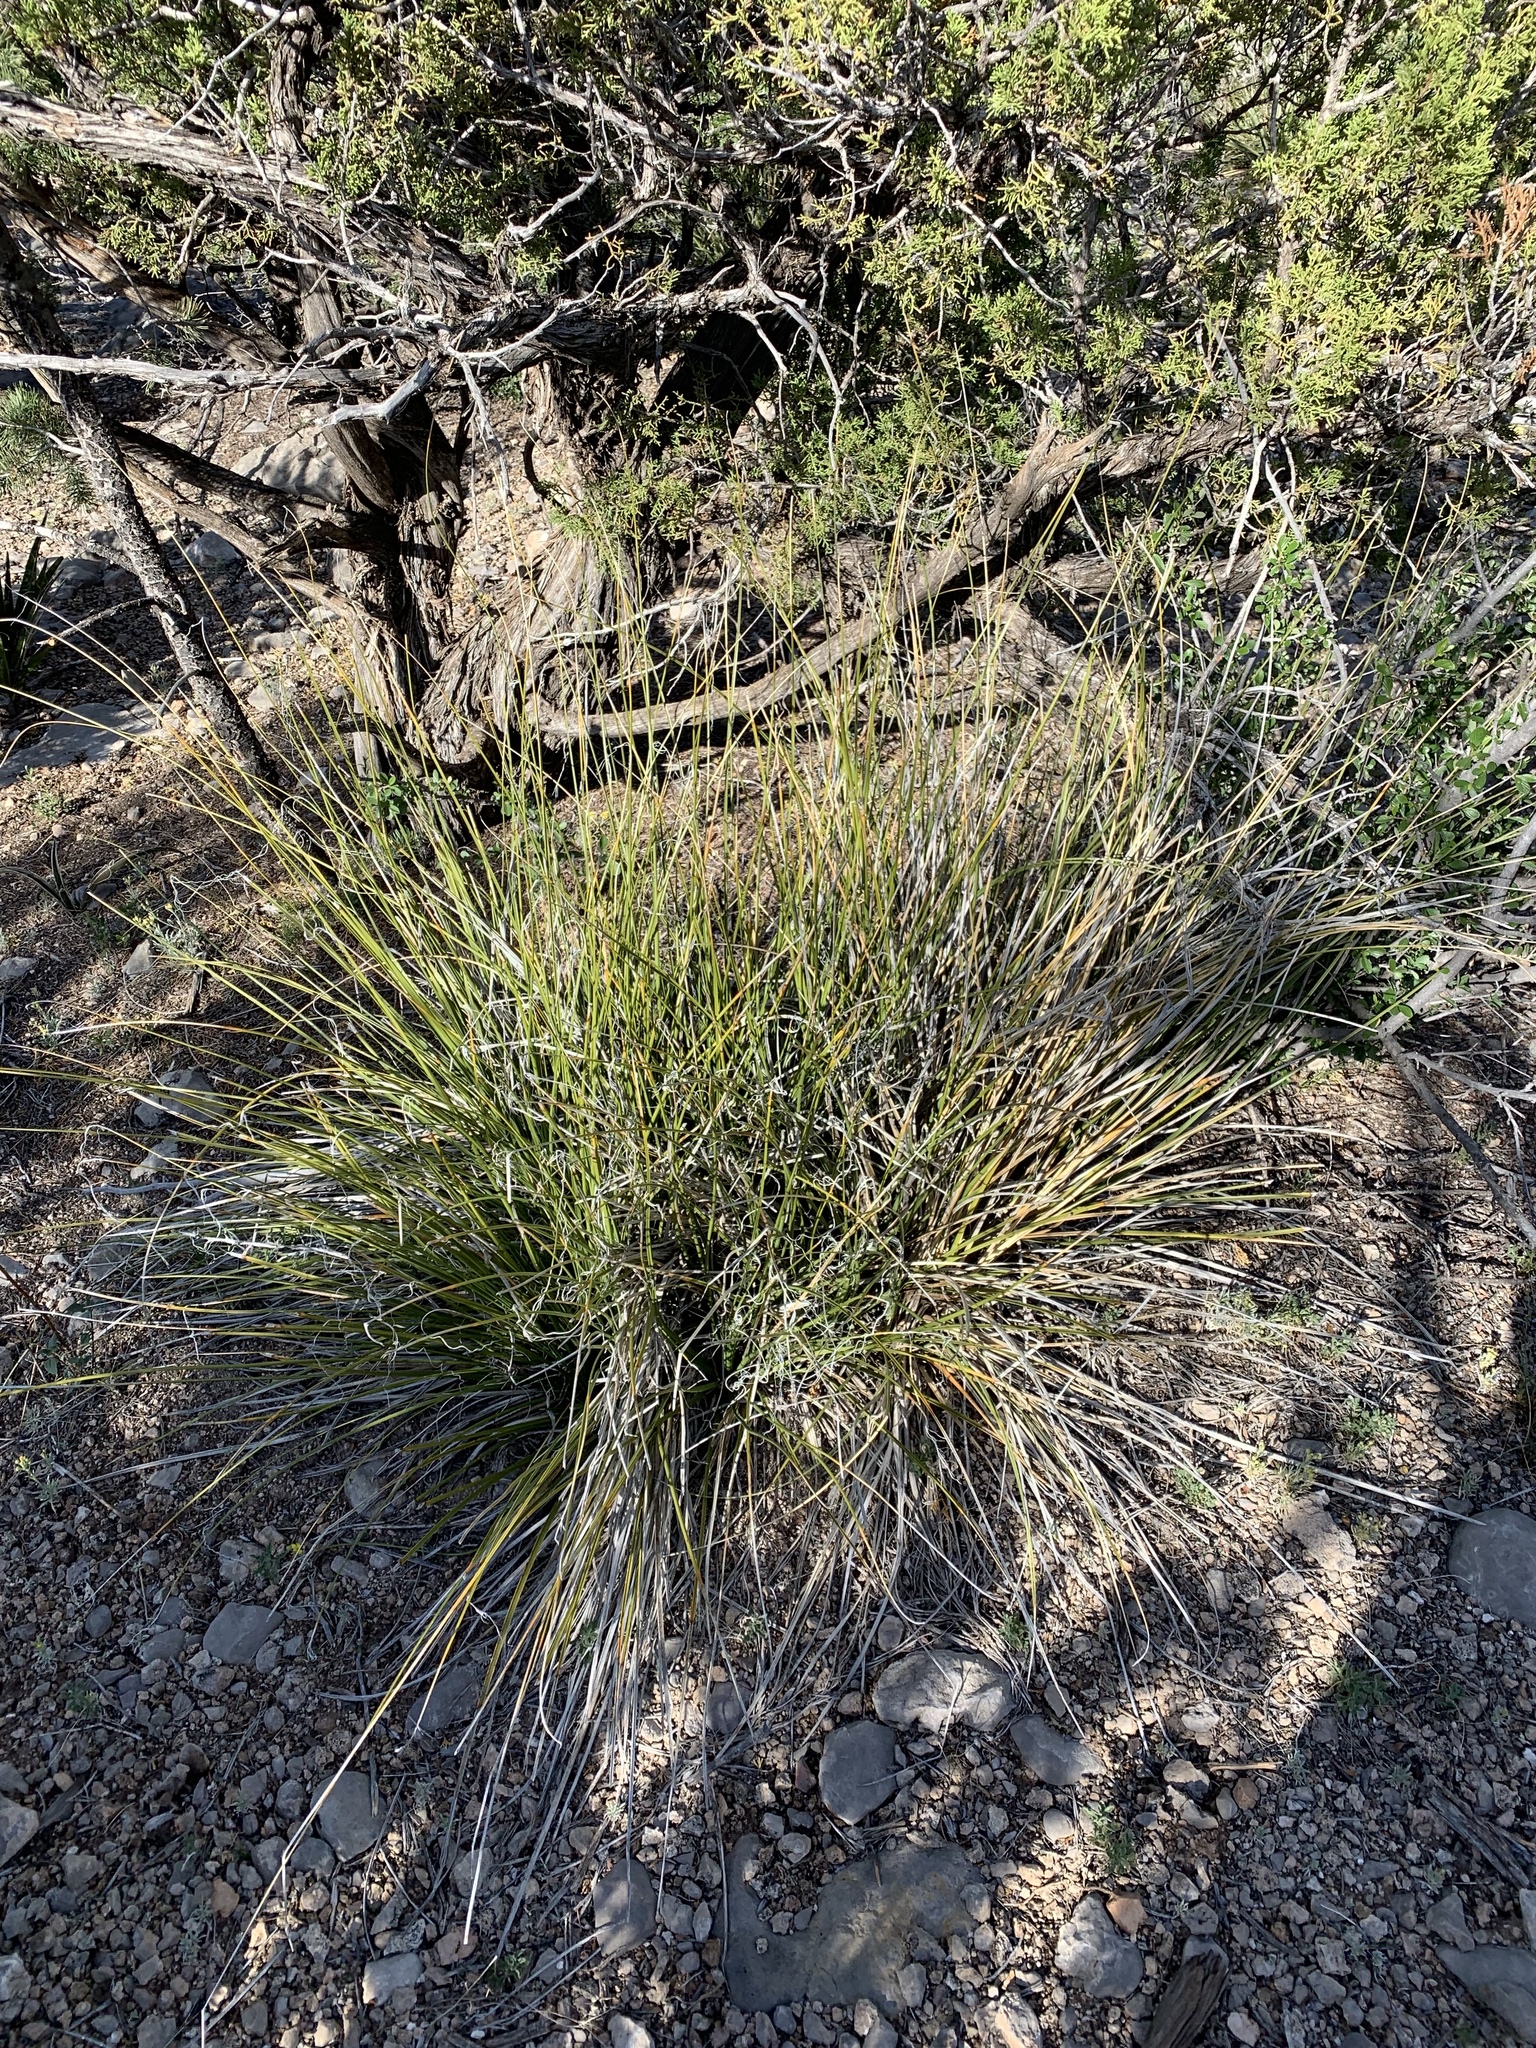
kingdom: Plantae
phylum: Tracheophyta
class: Liliopsida
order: Asparagales
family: Asparagaceae
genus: Nolina
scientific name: Nolina microcarpa
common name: Bear-grass
